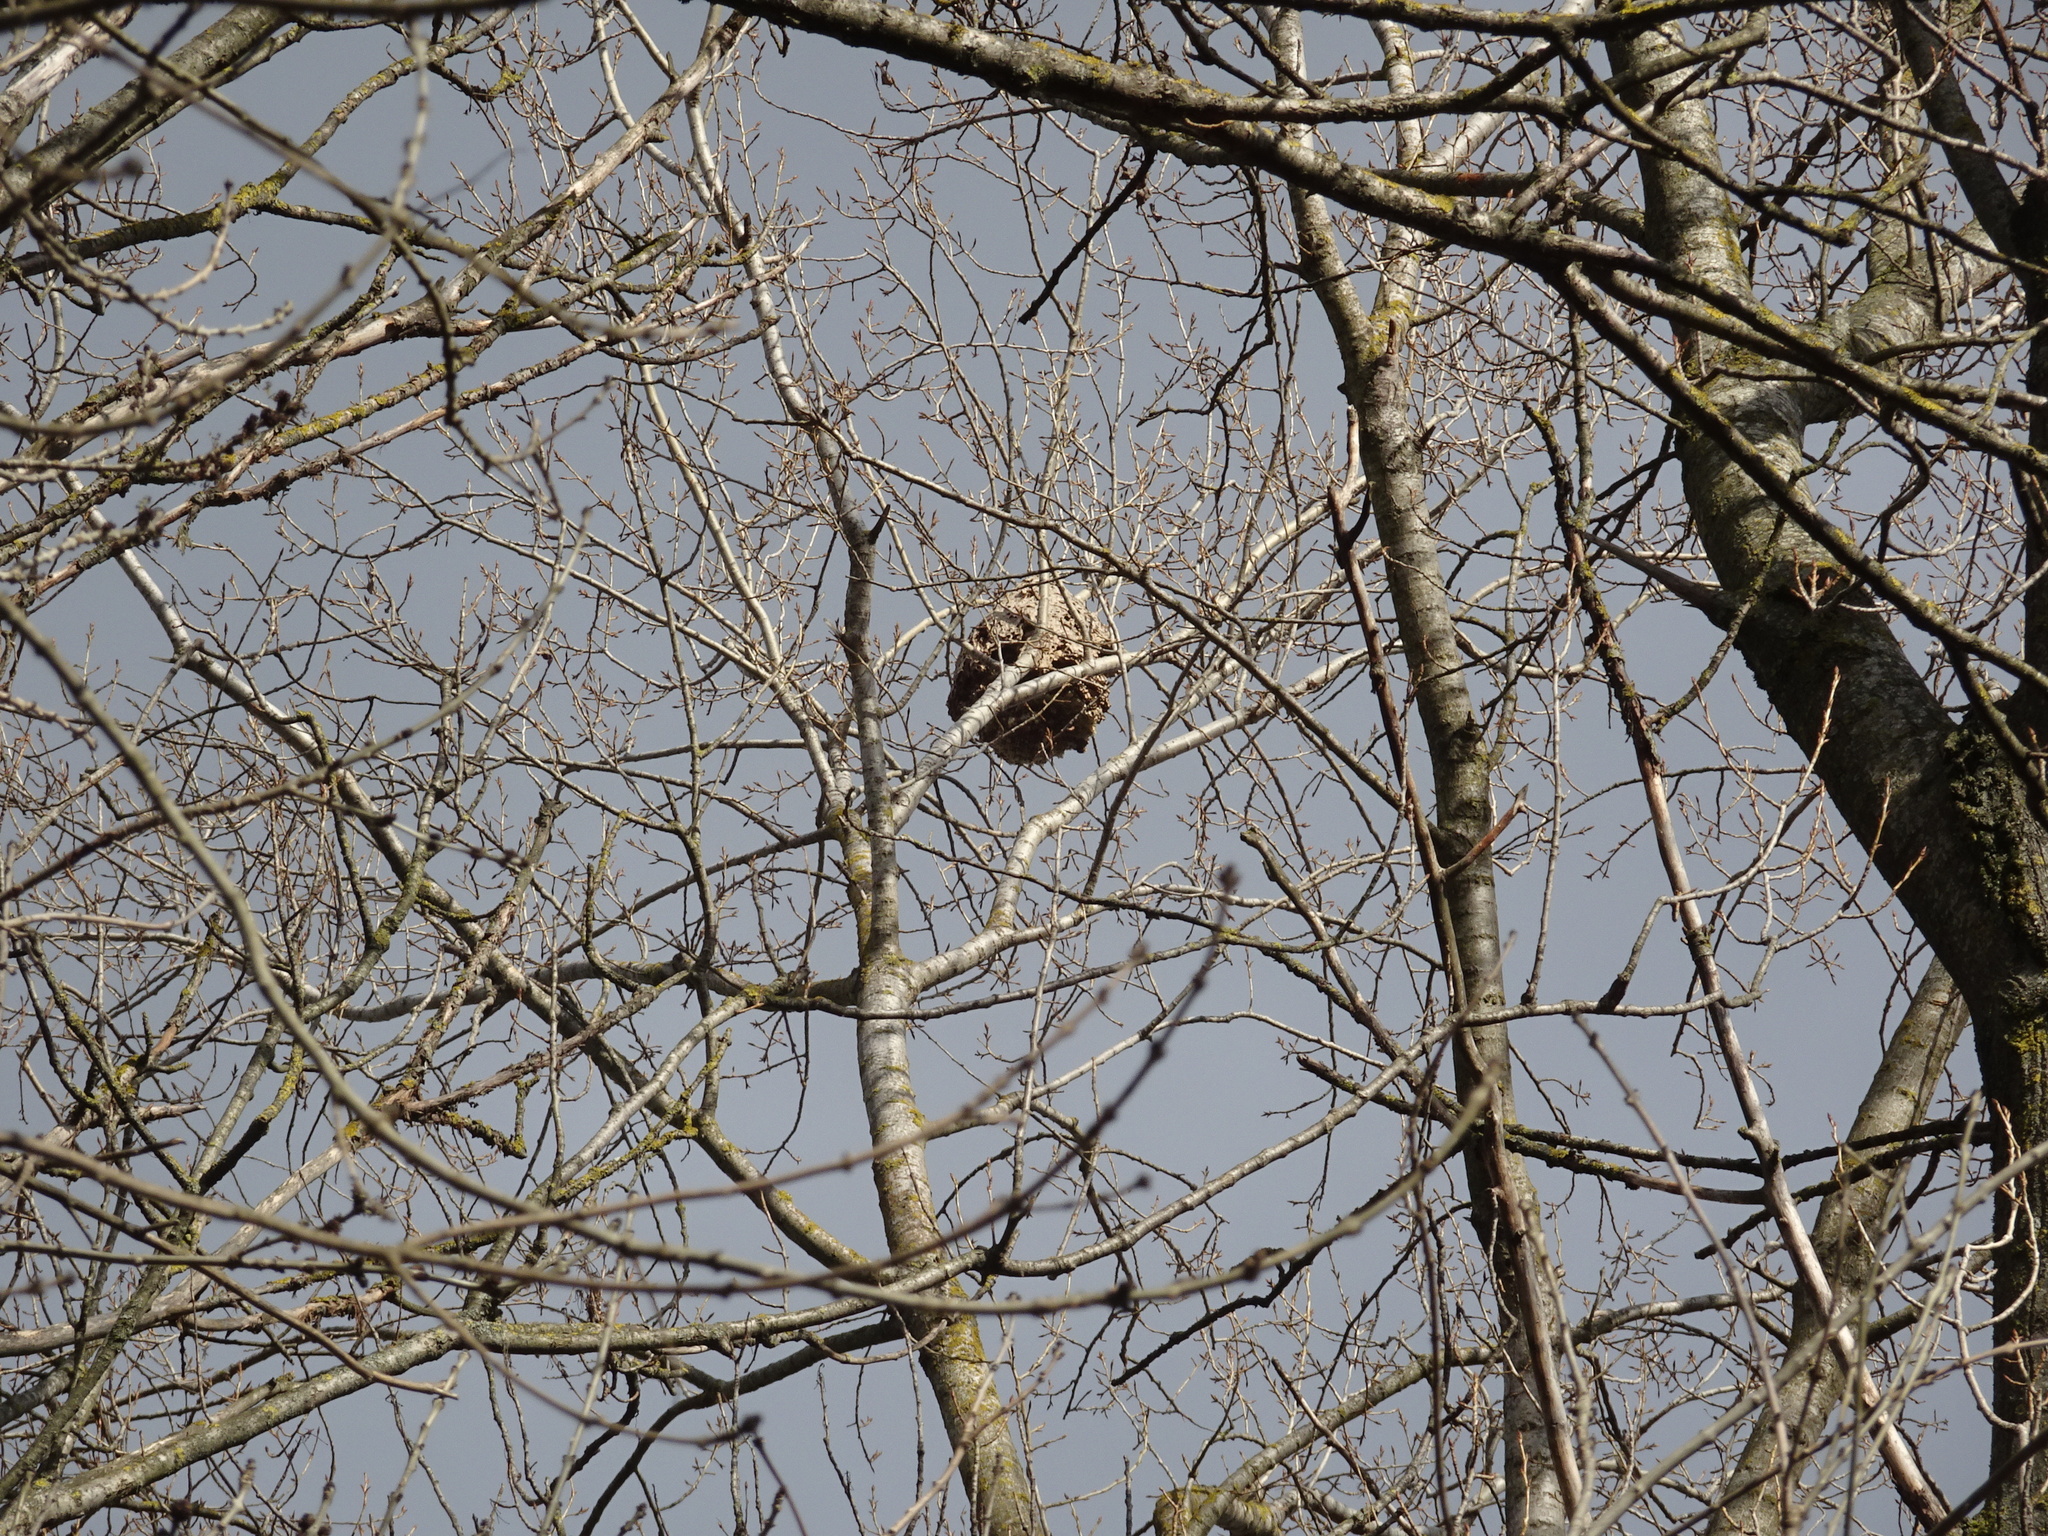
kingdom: Animalia
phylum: Arthropoda
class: Insecta
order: Hymenoptera
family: Vespidae
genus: Vespa
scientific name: Vespa velutina
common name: Asian hornet
